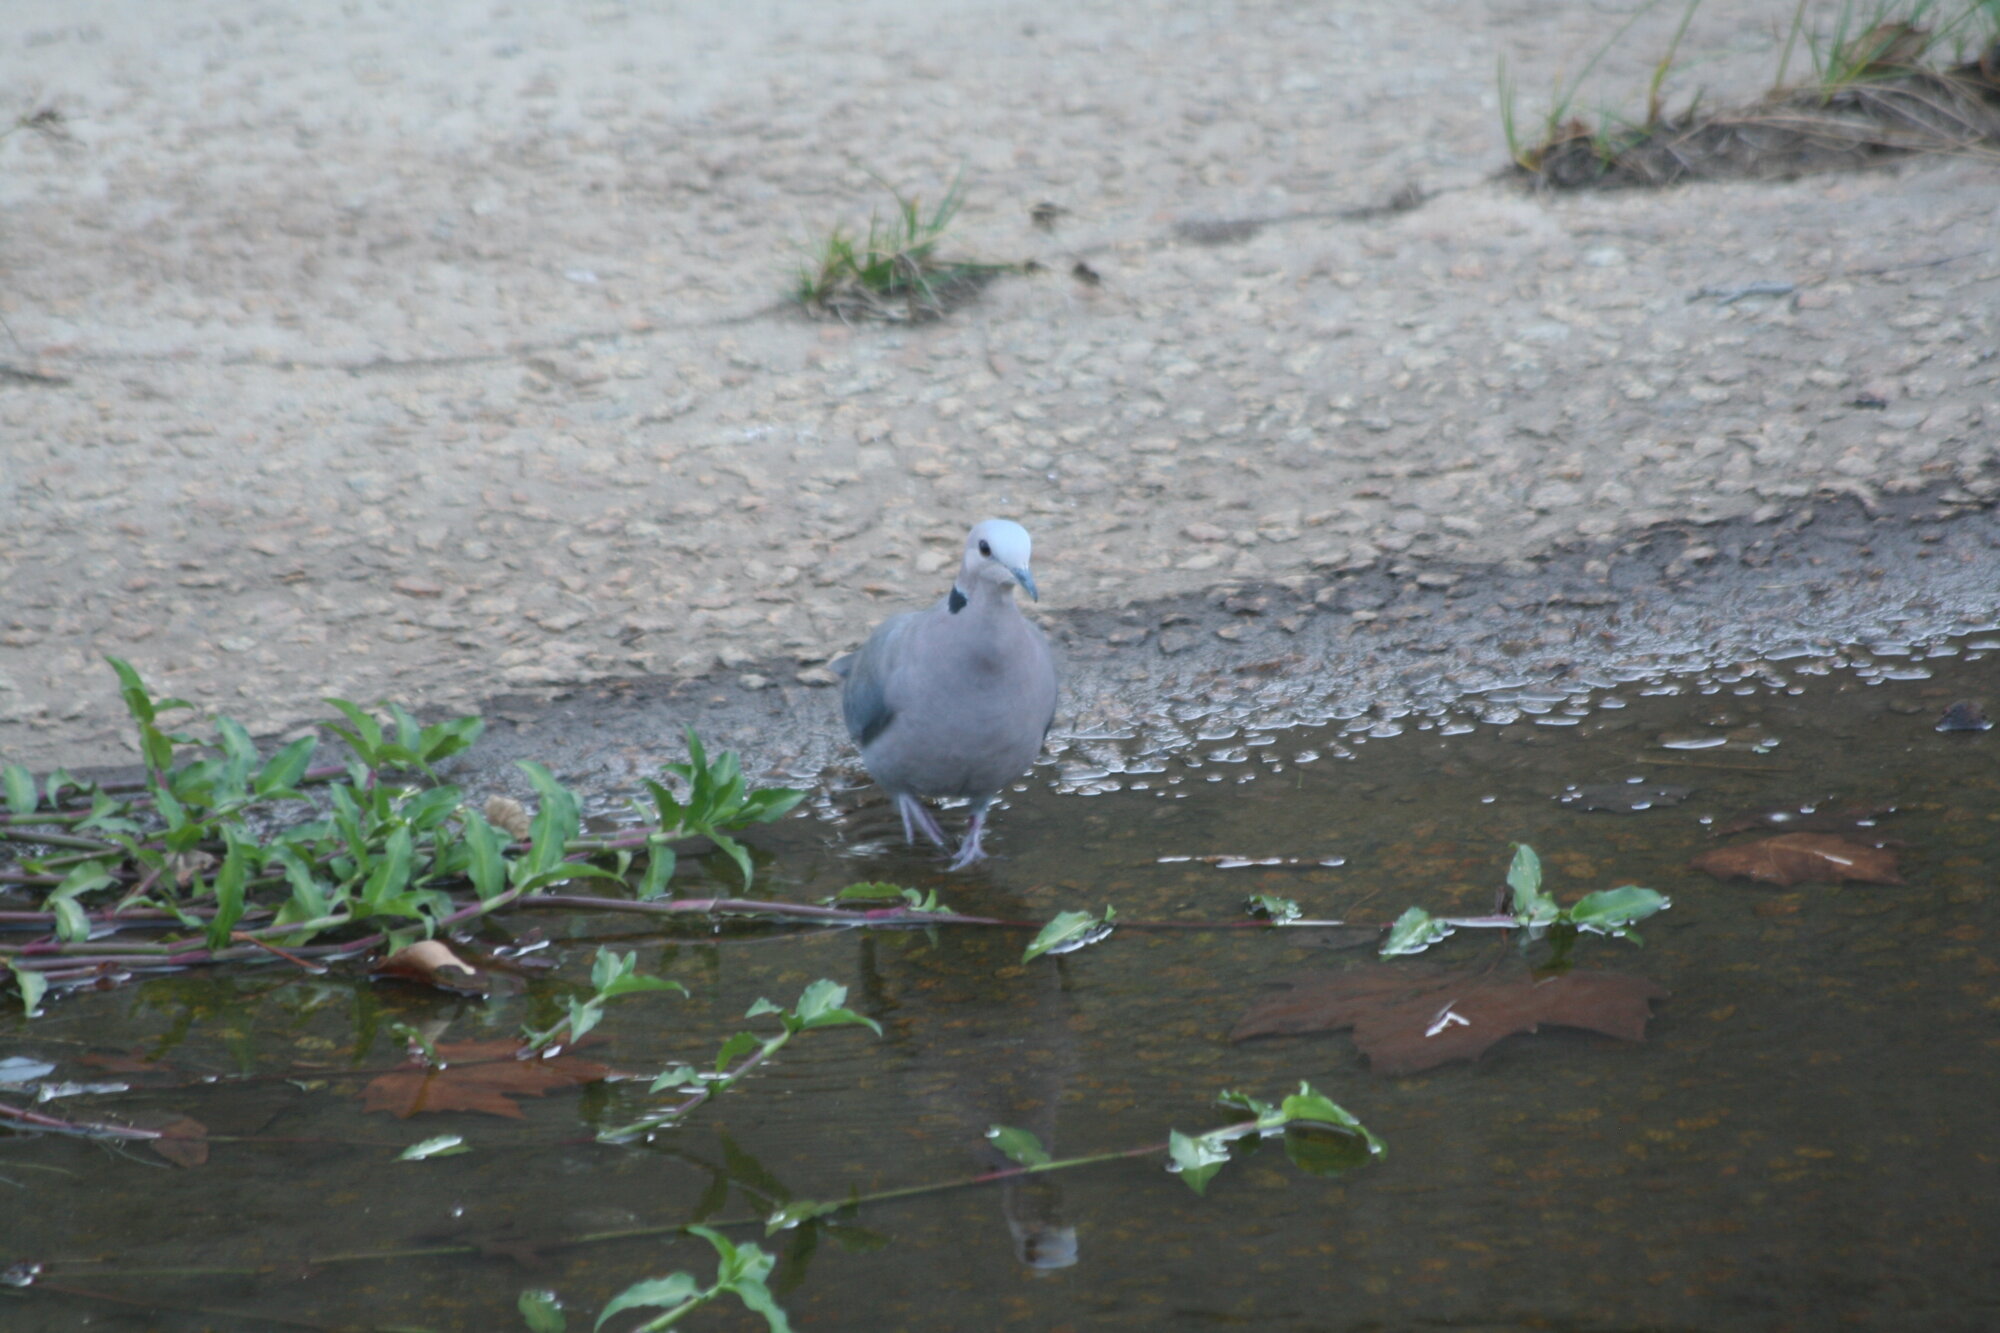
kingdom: Animalia
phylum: Chordata
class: Aves
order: Columbiformes
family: Columbidae
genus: Streptopelia
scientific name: Streptopelia semitorquata
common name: Red-eyed dove
